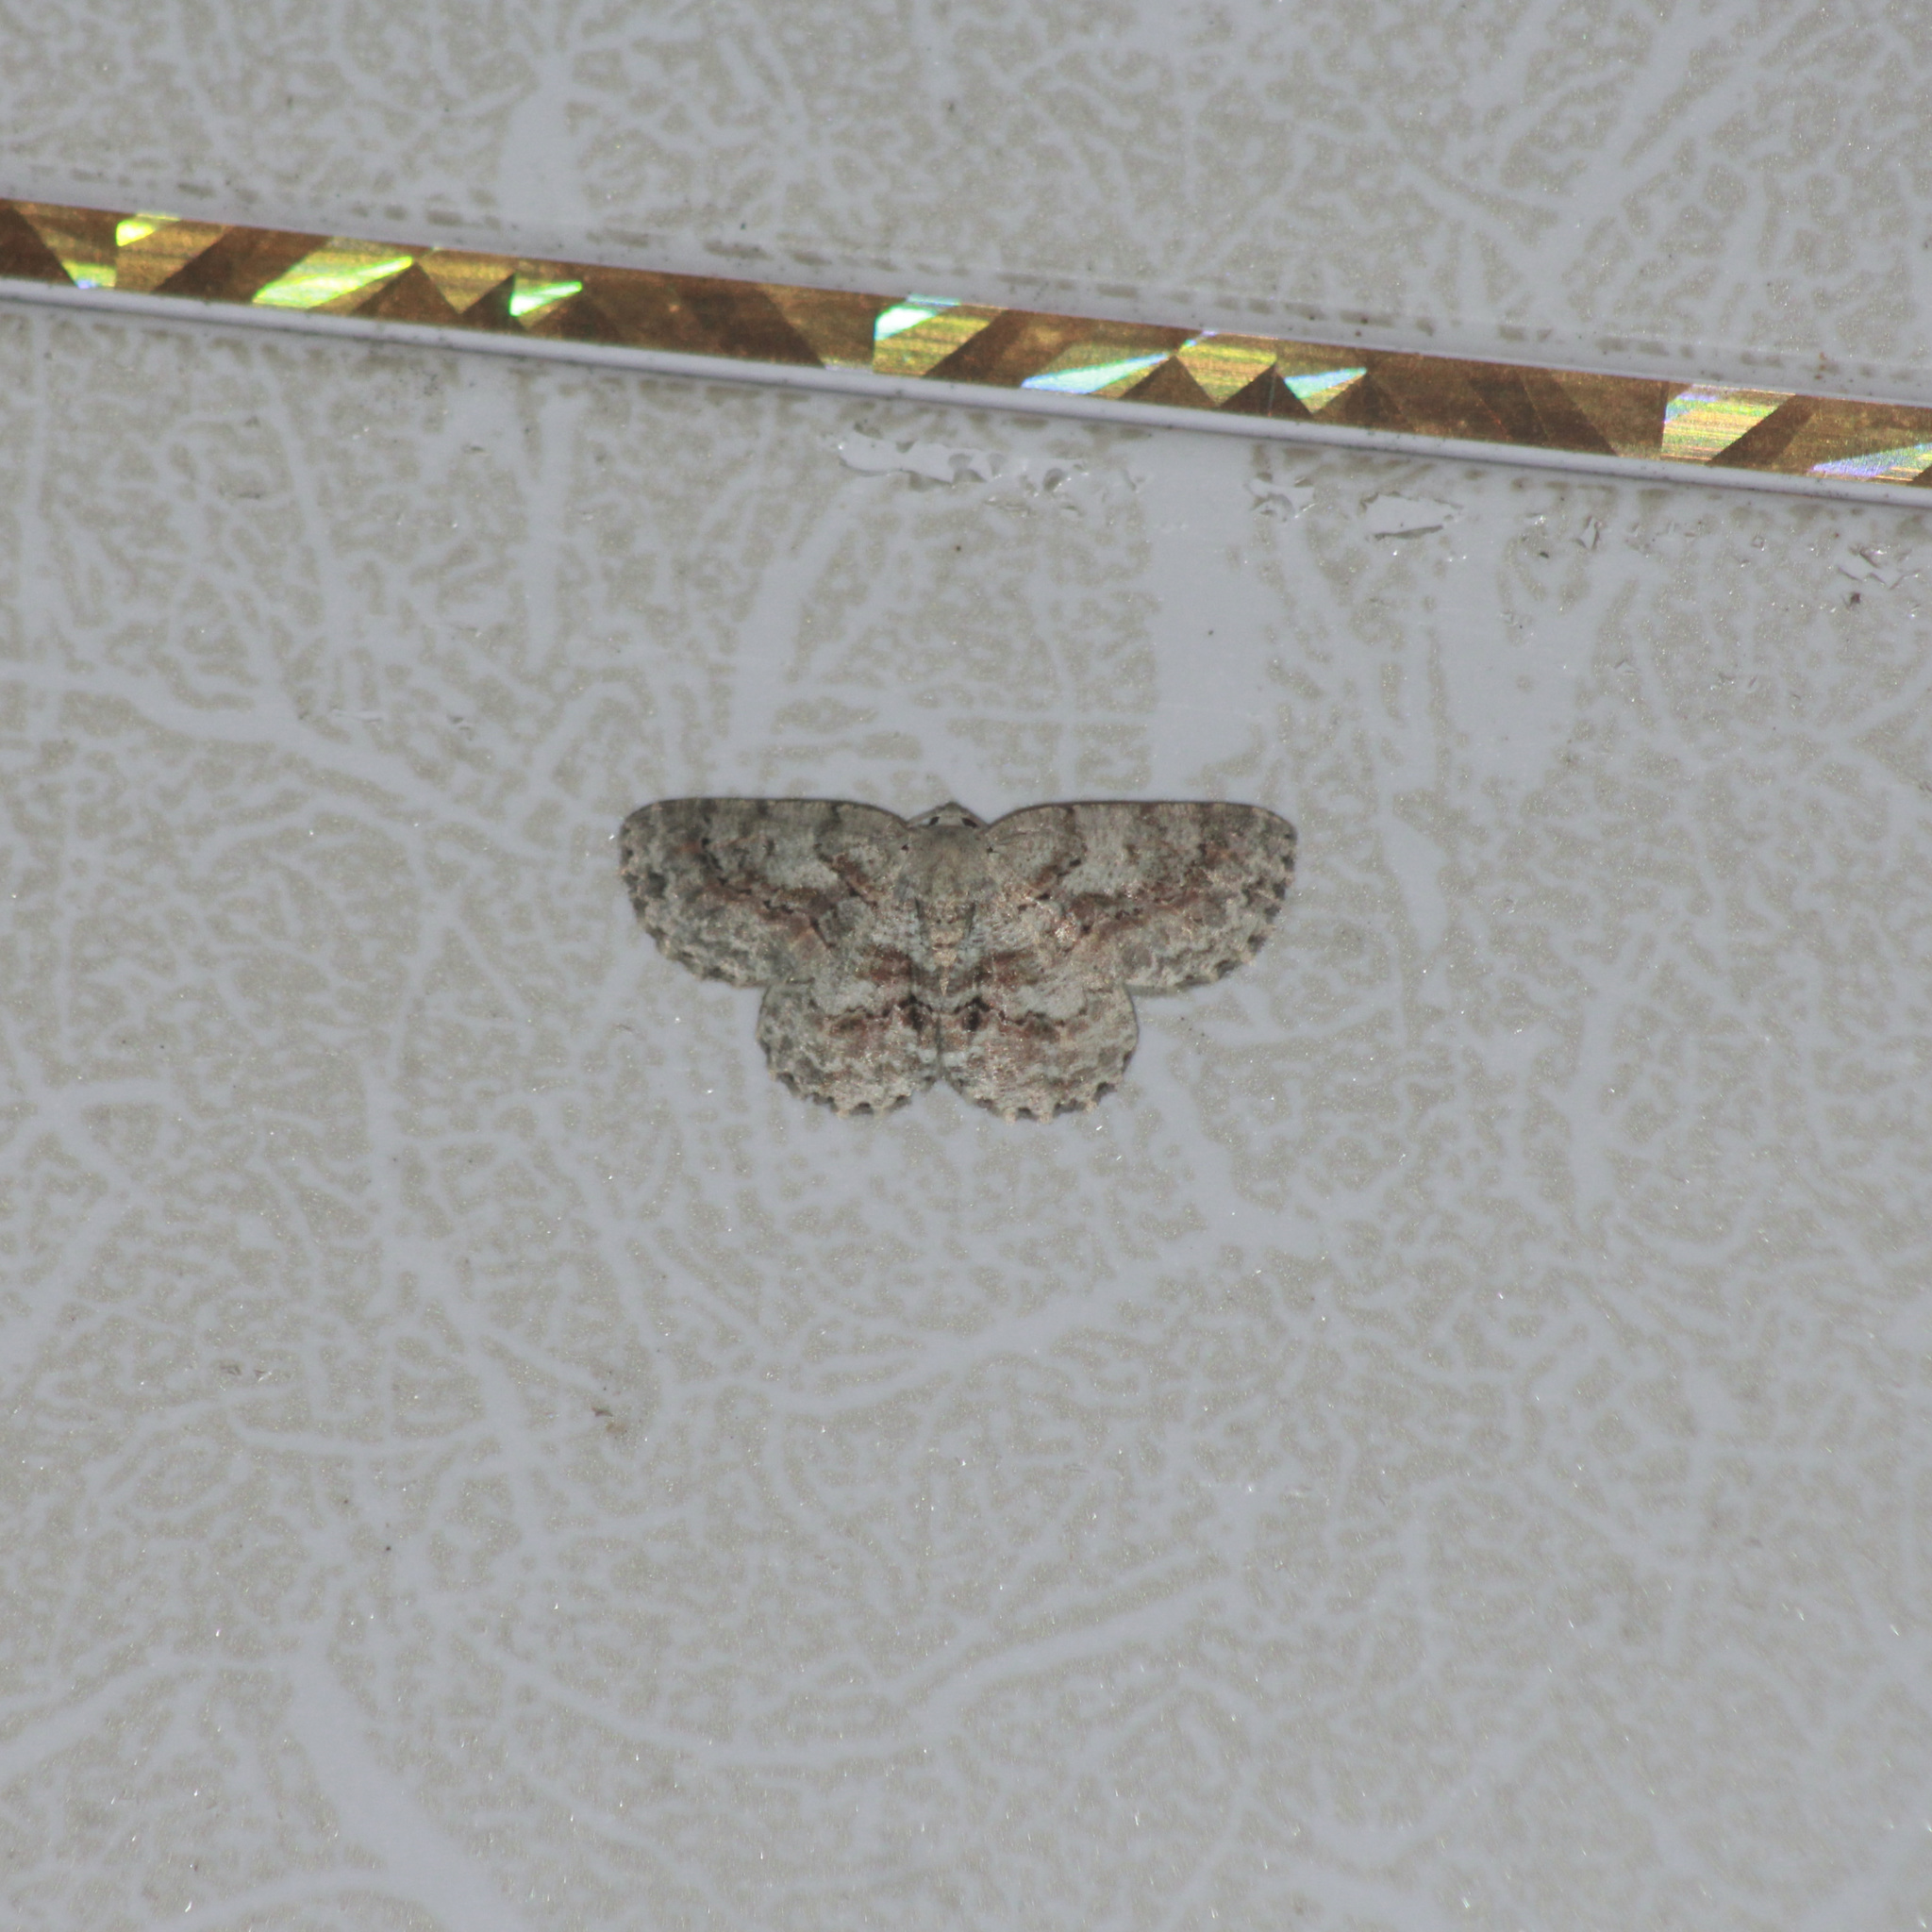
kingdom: Animalia
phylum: Arthropoda
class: Insecta
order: Lepidoptera
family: Geometridae
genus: Bryoptera
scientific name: Bryoptera hypomelas
